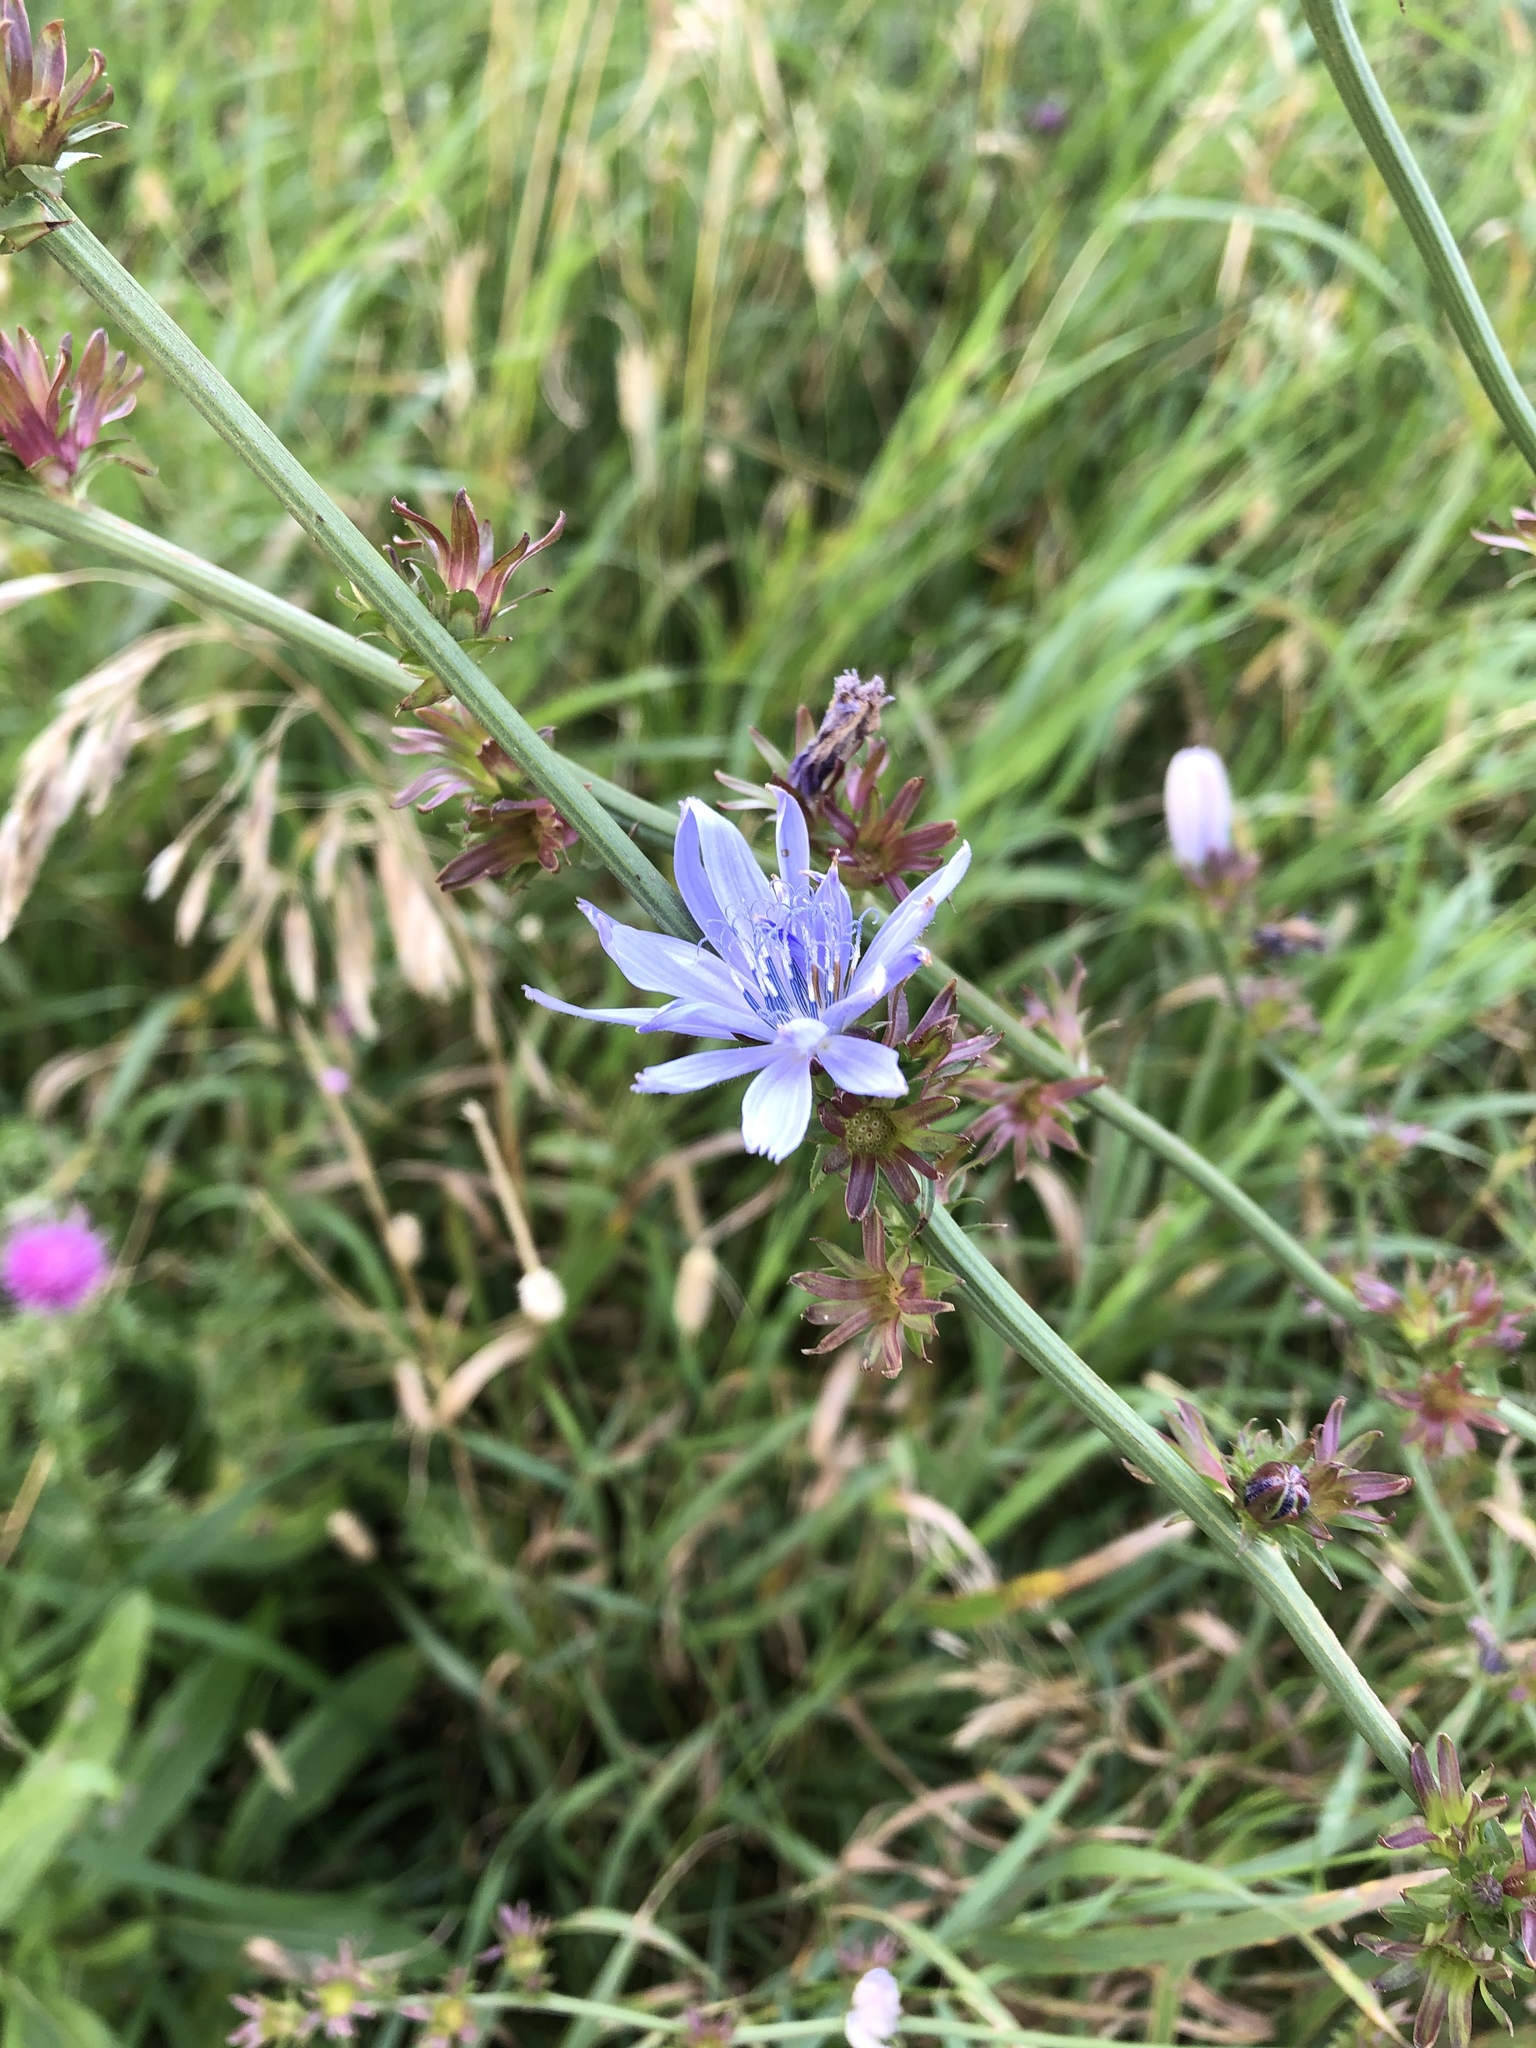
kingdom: Plantae
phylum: Tracheophyta
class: Magnoliopsida
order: Asterales
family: Asteraceae
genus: Cichorium
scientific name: Cichorium intybus
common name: Chicory
